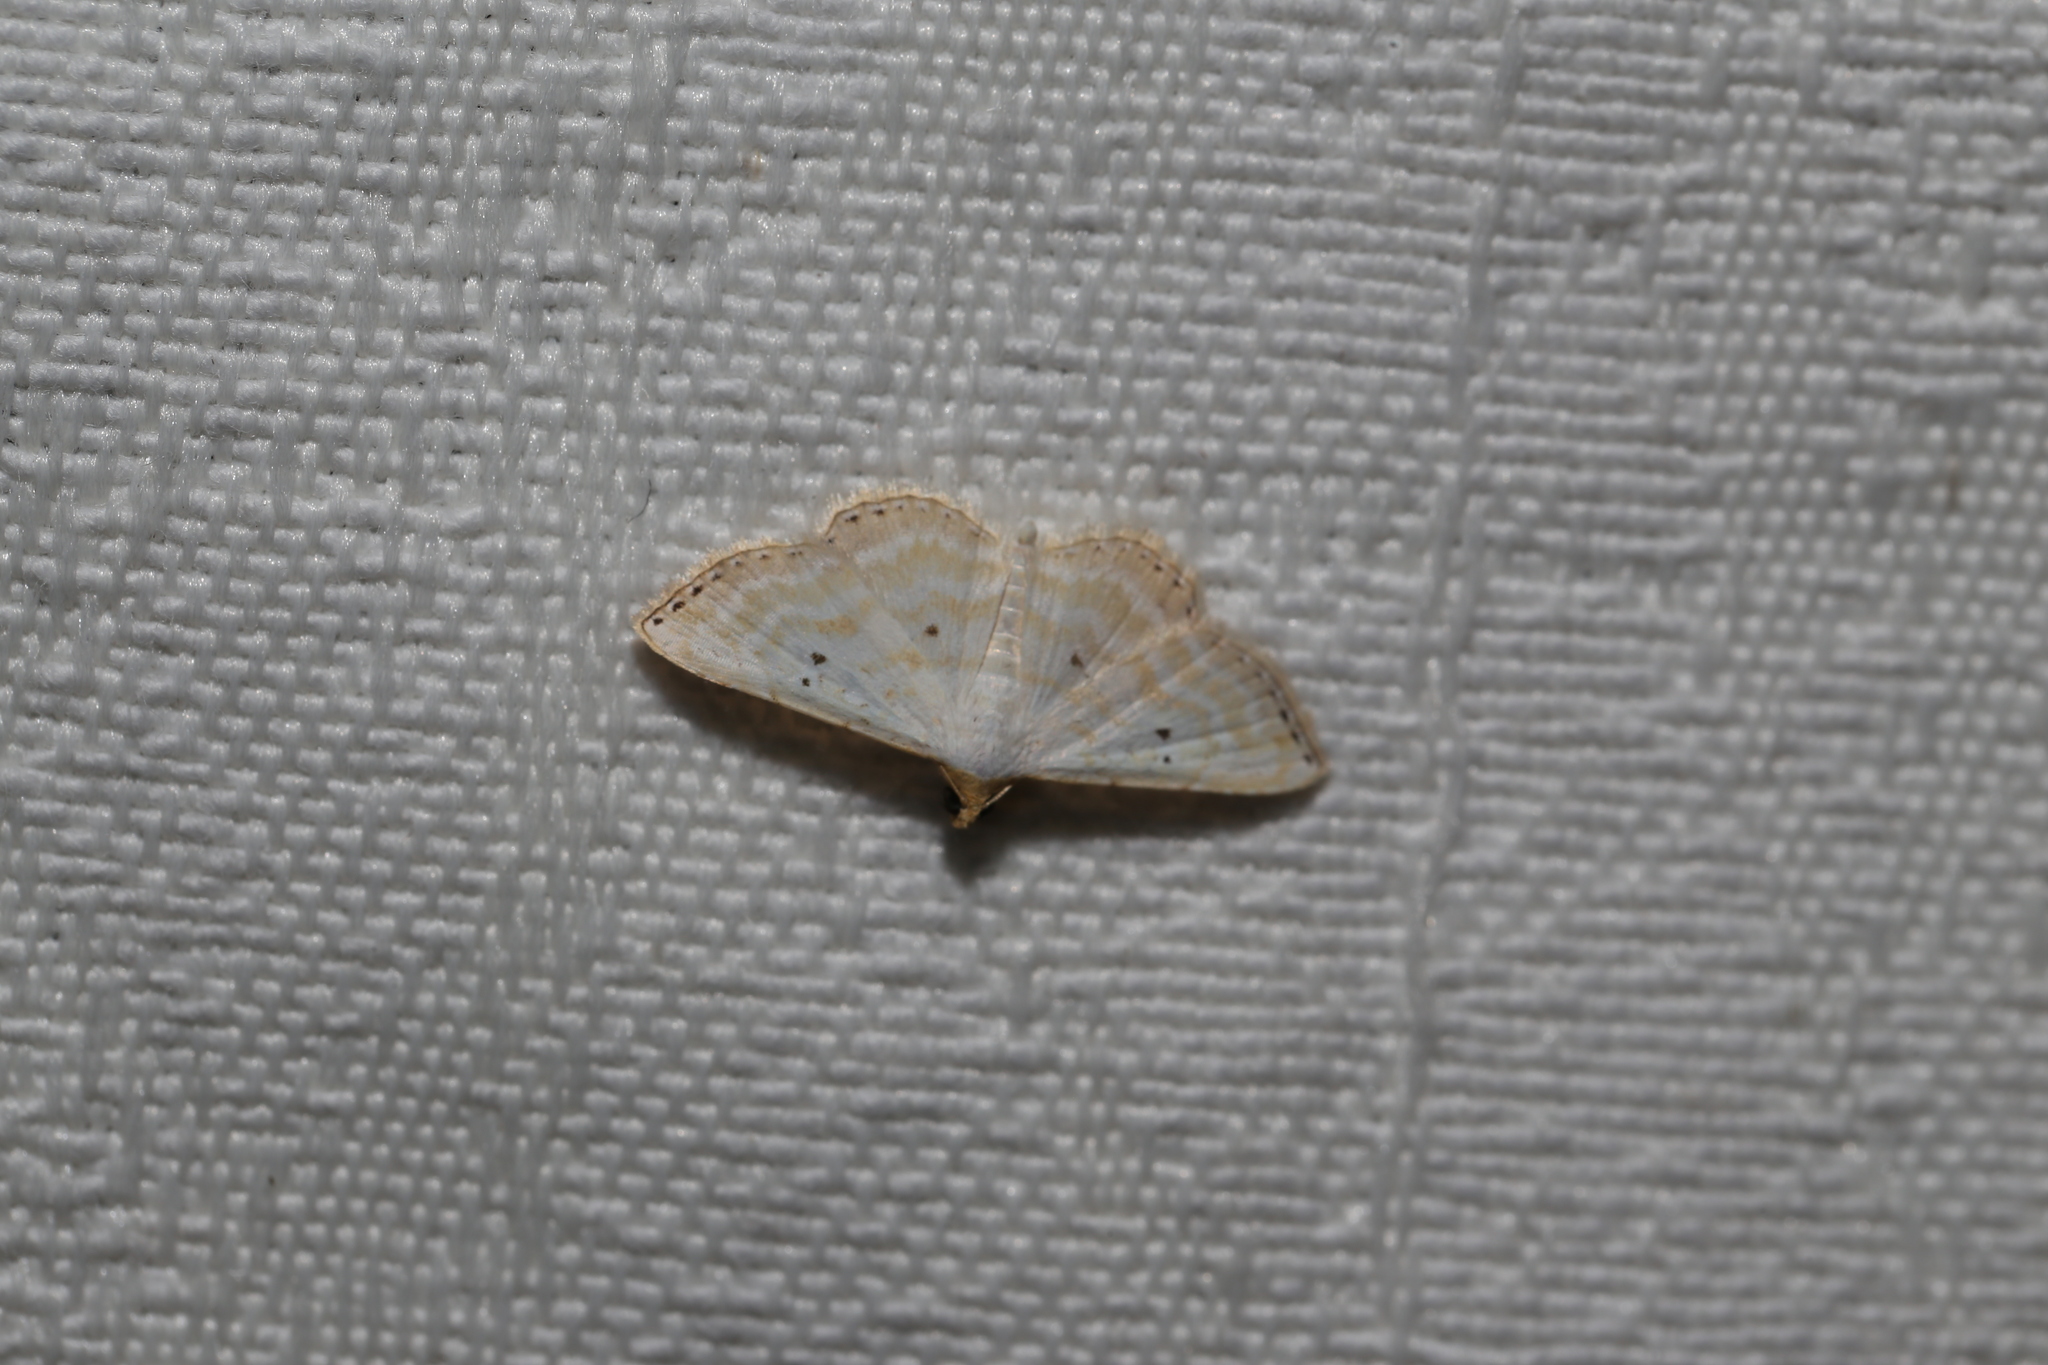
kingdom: Animalia
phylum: Arthropoda
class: Insecta
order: Lepidoptera
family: Noctuidae
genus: Oruza
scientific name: Oruza cariosa
